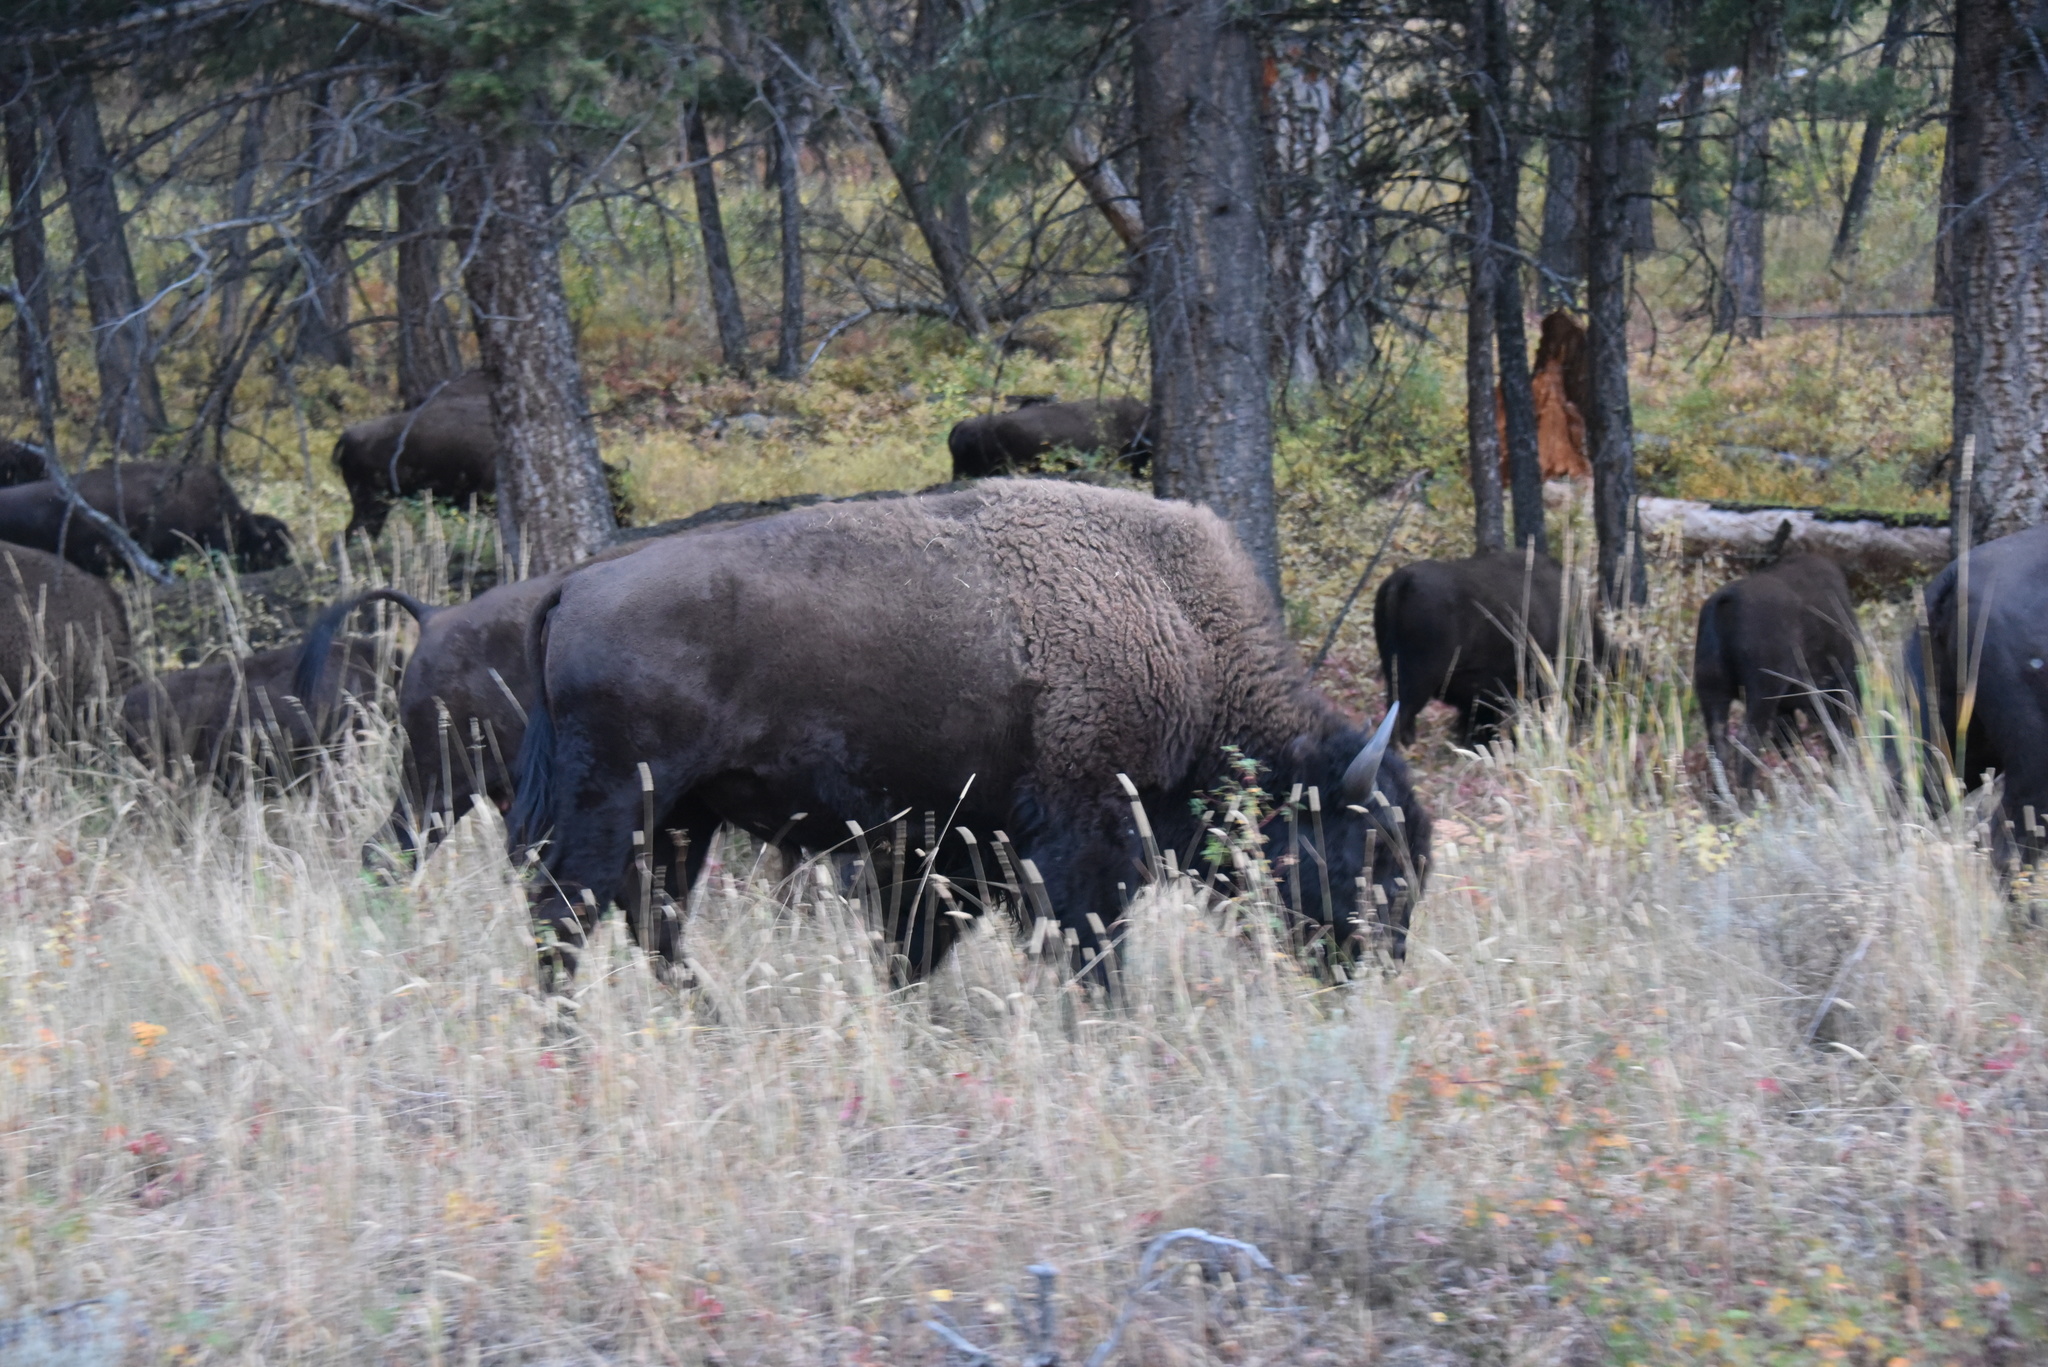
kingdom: Animalia
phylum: Chordata
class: Mammalia
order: Artiodactyla
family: Bovidae
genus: Bison
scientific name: Bison bison
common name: American bison
